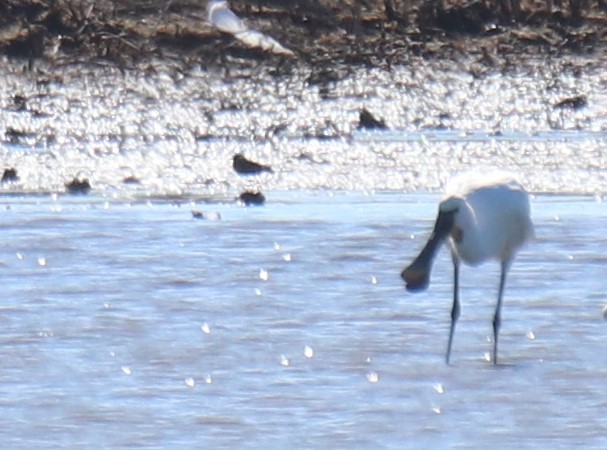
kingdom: Animalia
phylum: Chordata
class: Aves
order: Pelecaniformes
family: Threskiornithidae
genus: Platalea
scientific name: Platalea leucorodia
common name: Eurasian spoonbill
